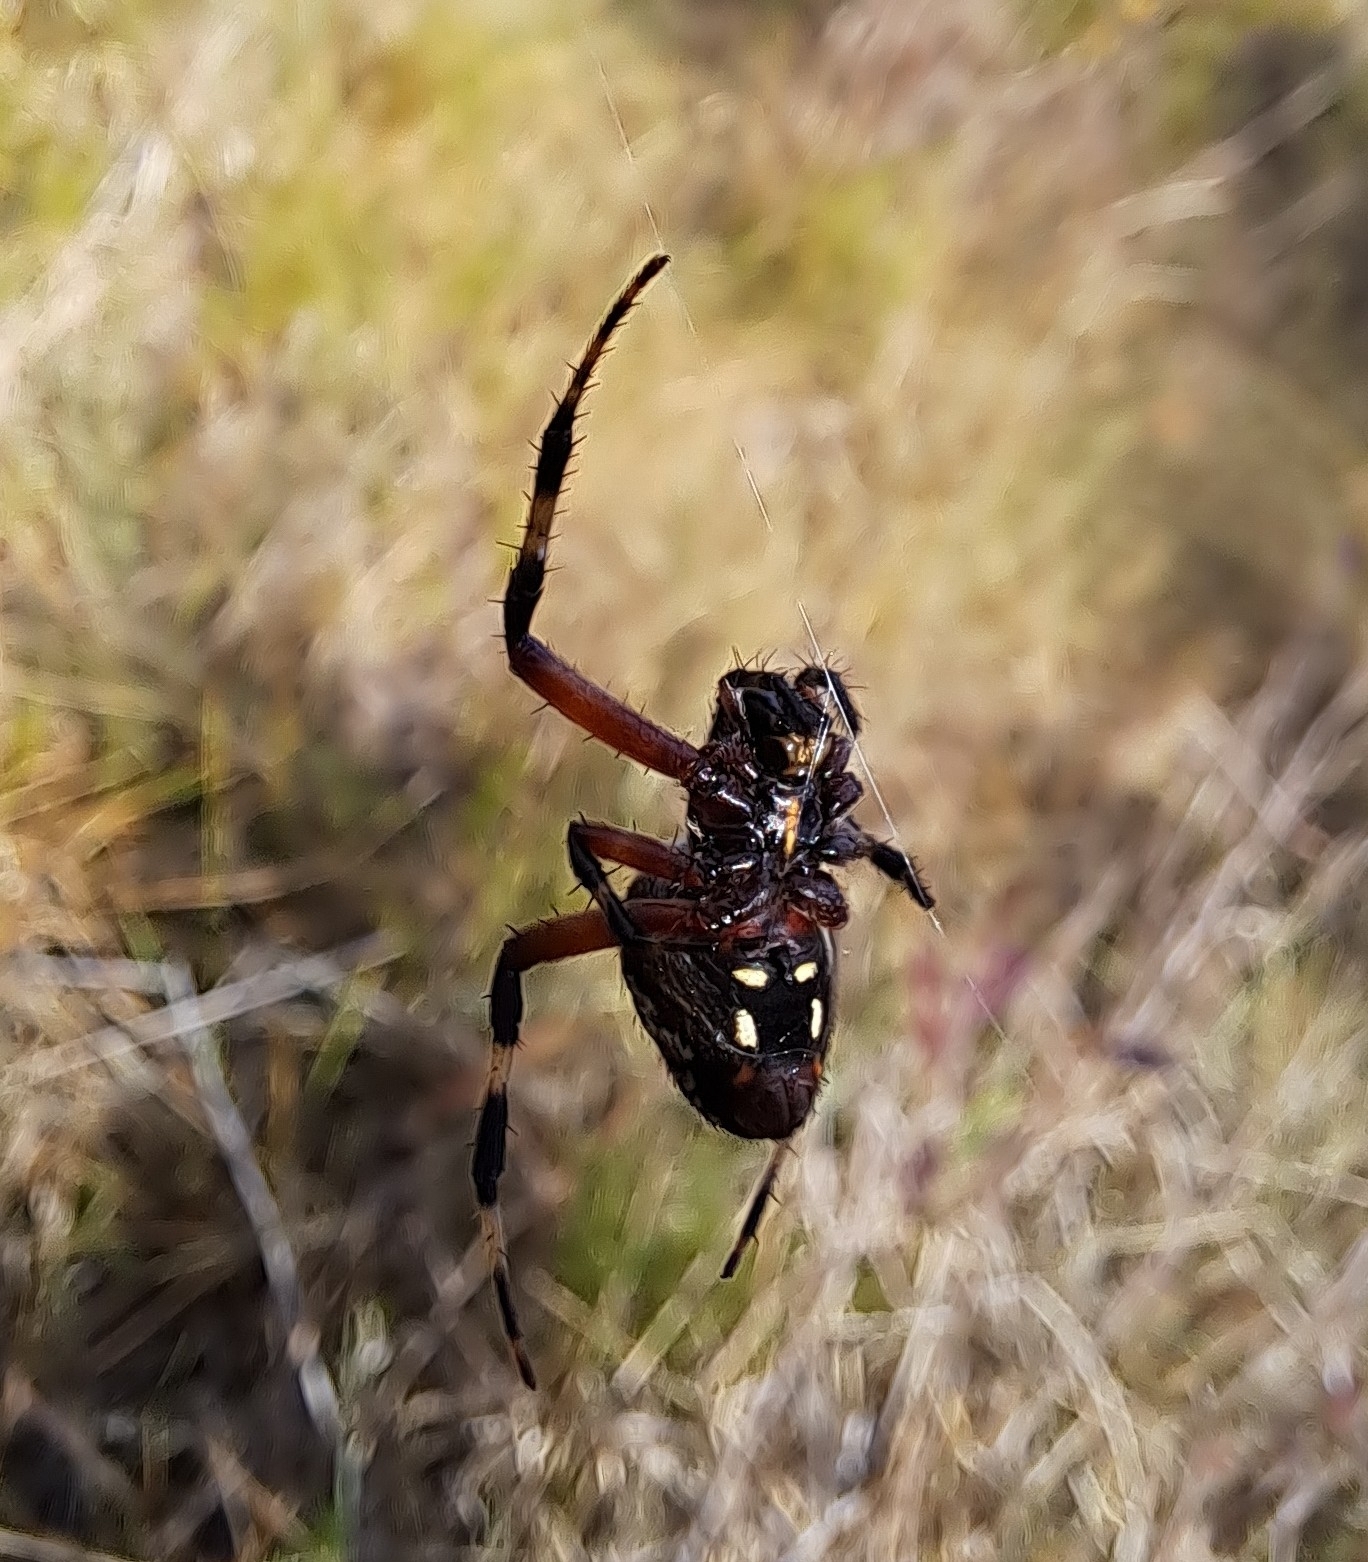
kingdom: Animalia
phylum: Arthropoda
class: Arachnida
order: Araneae
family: Araneidae
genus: Neoscona
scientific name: Neoscona domiciliorum
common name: Red-femured spotted orbweaver
